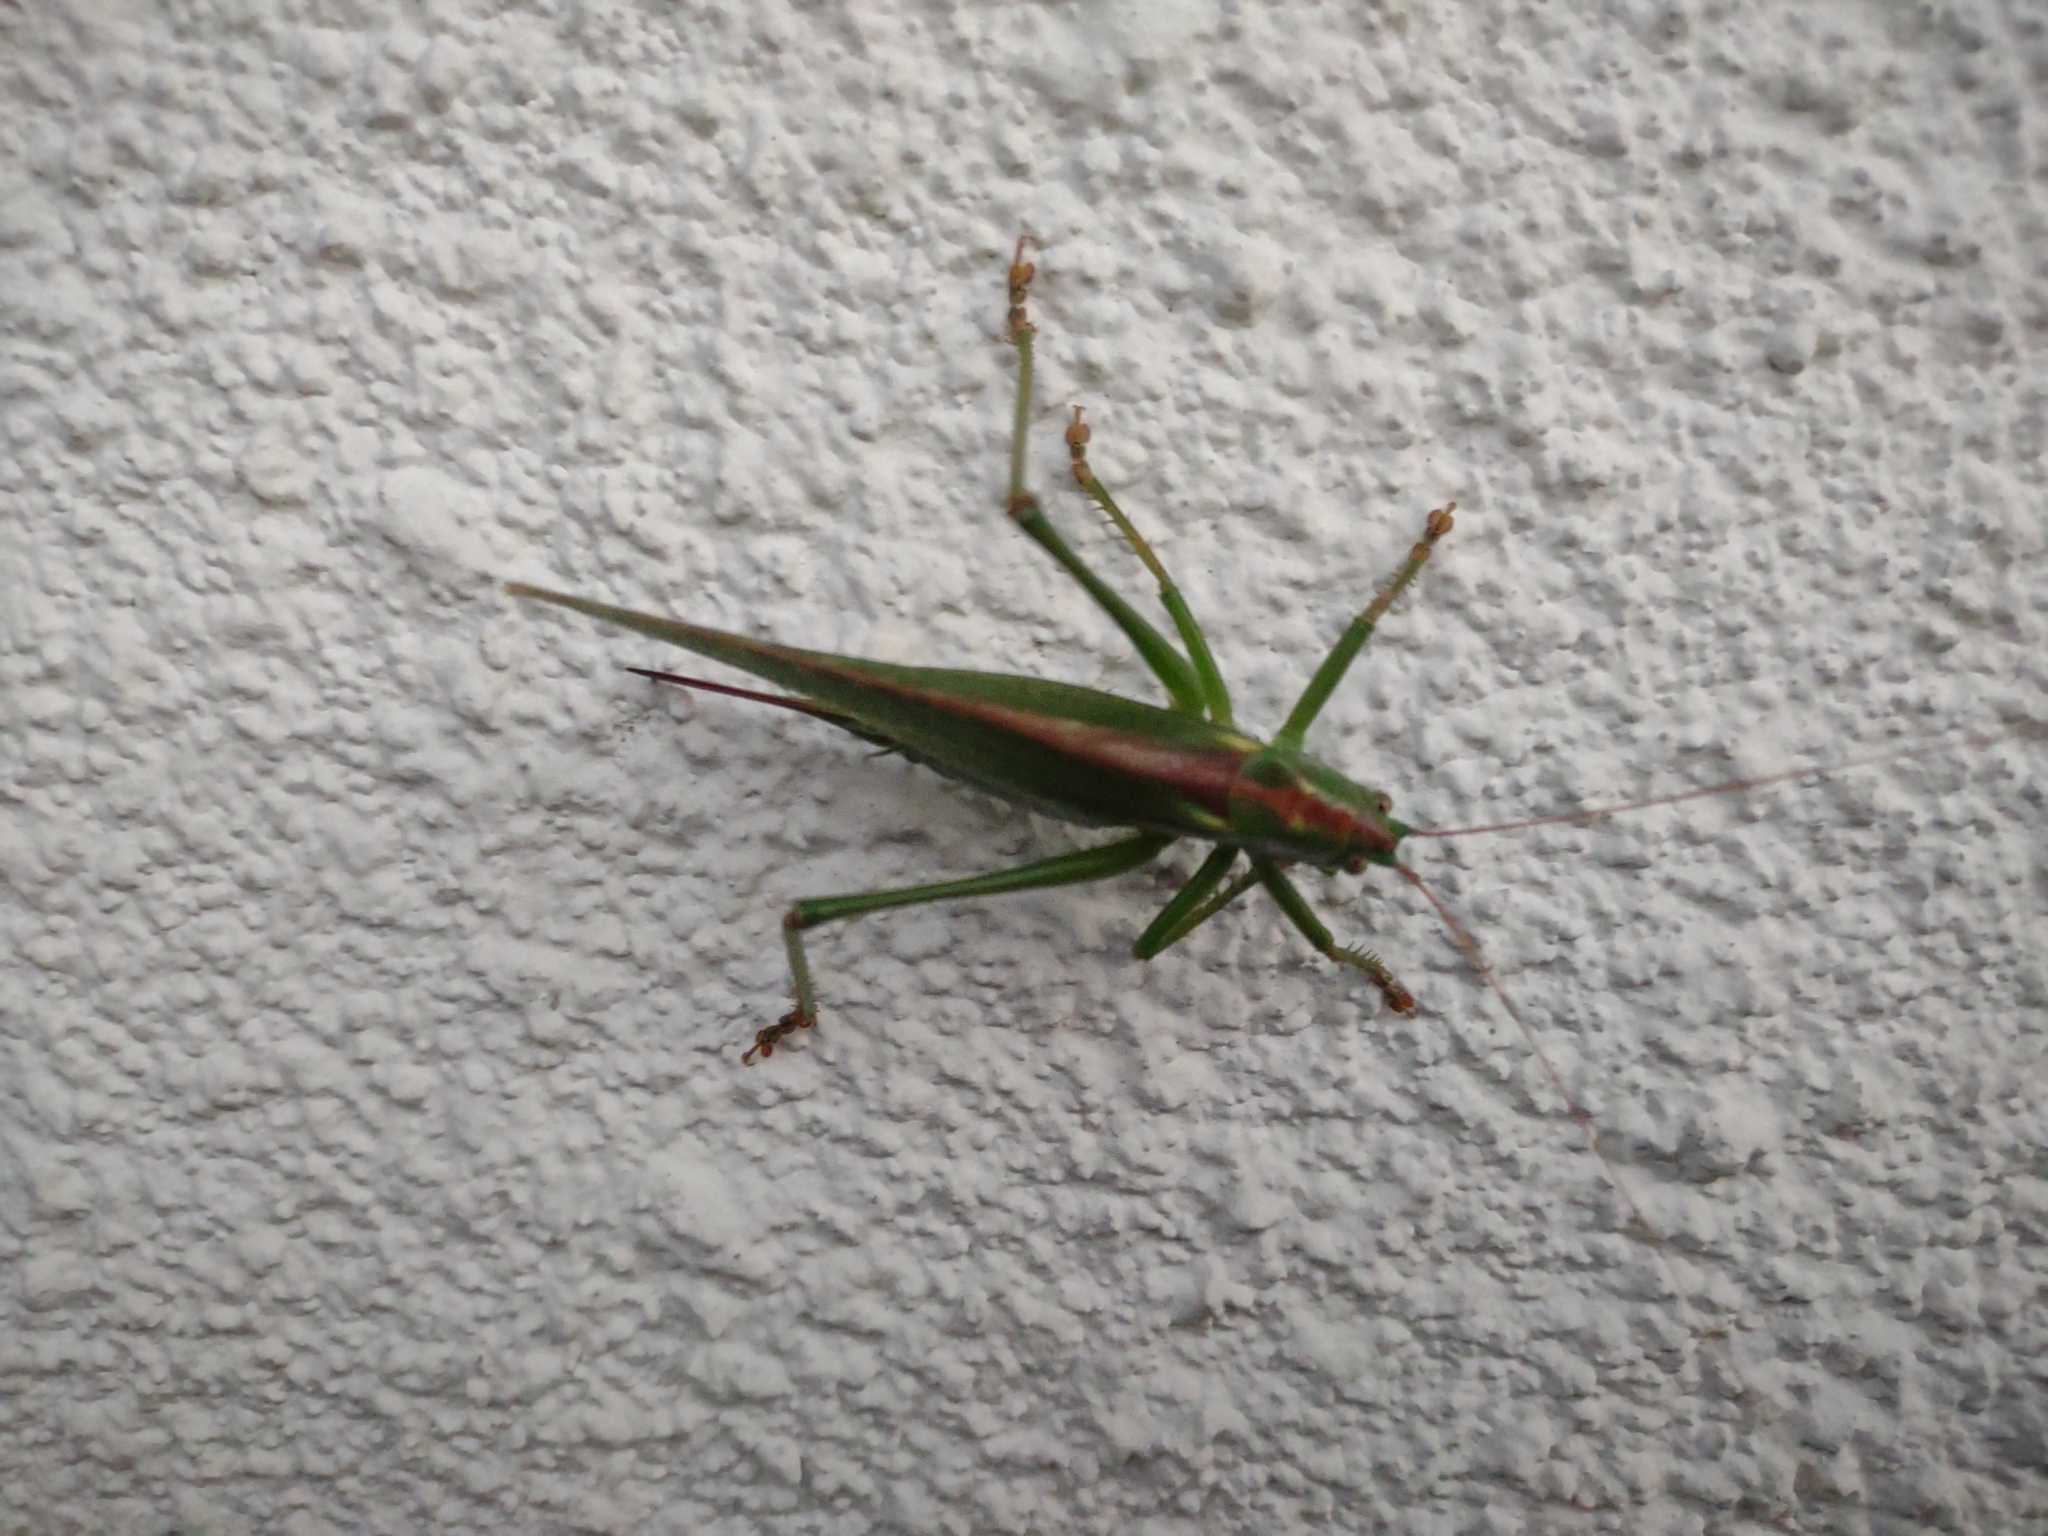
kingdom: Animalia
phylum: Arthropoda
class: Insecta
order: Orthoptera
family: Tettigoniidae
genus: Tettigonia
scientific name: Tettigonia viridissima
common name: Great green bush-cricket
